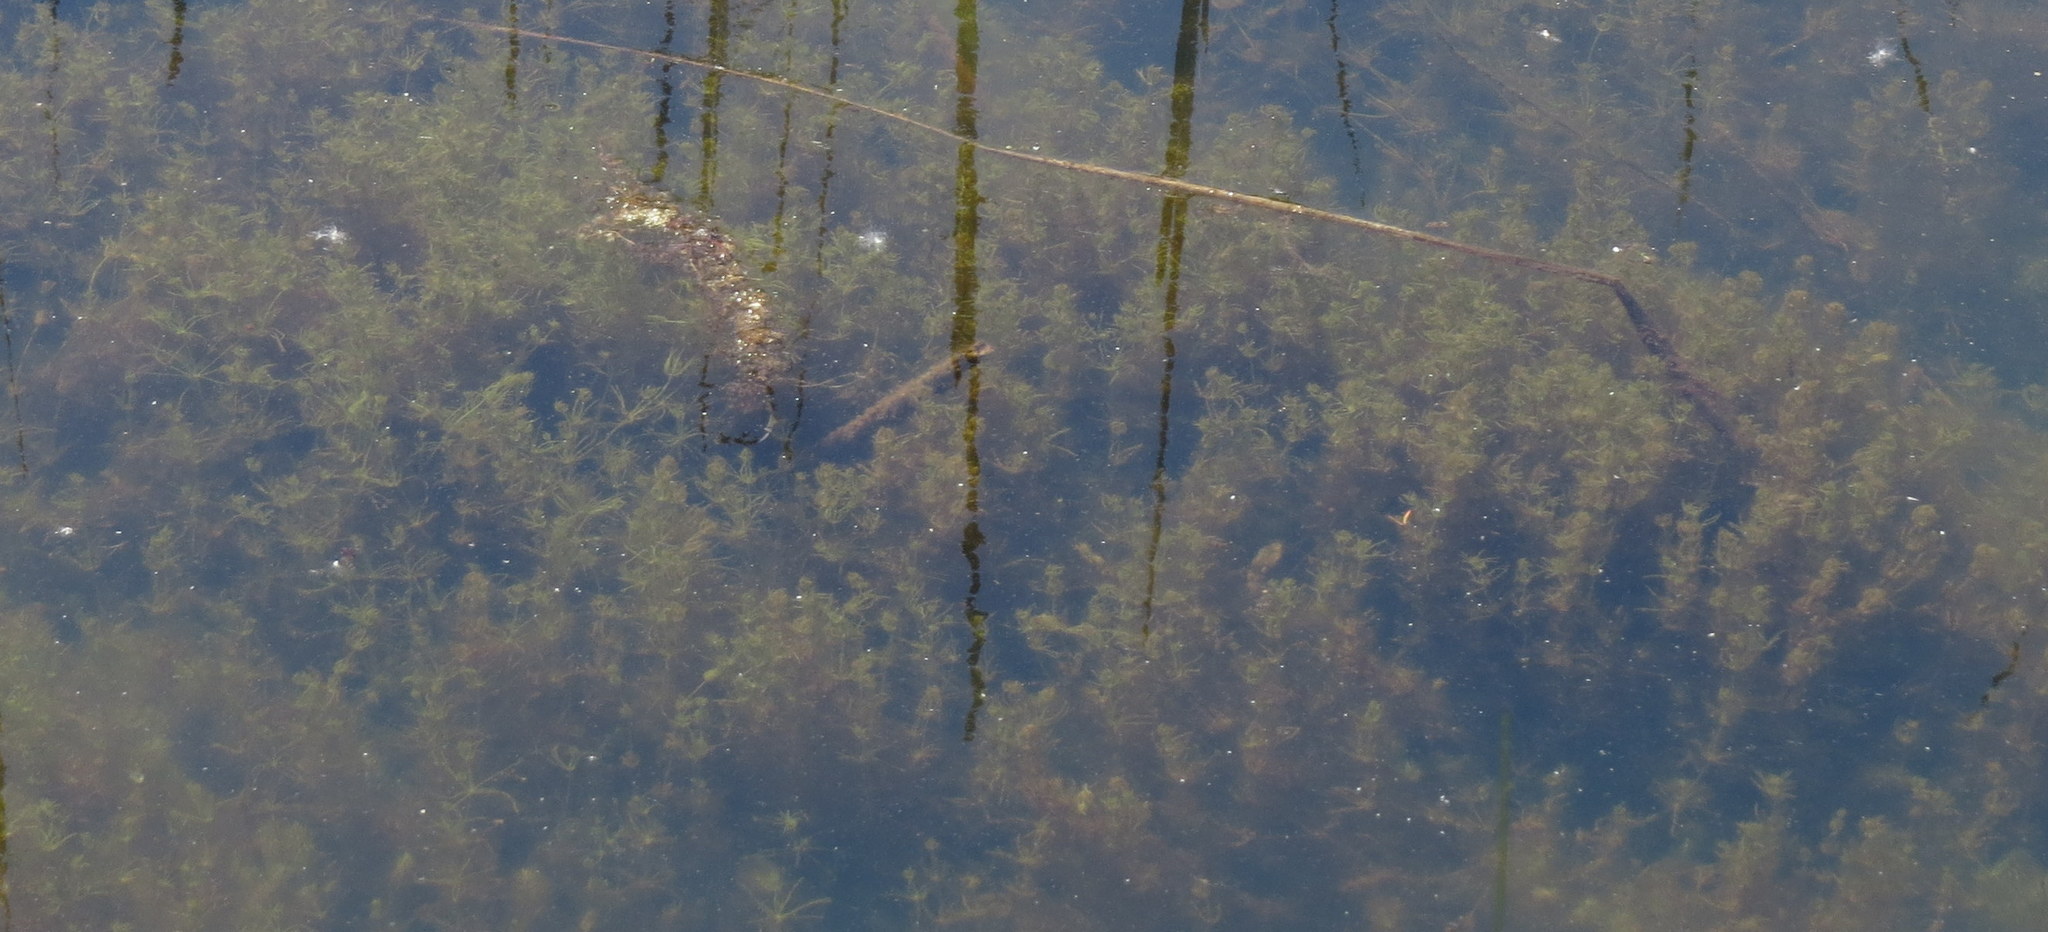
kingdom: Plantae
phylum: Tracheophyta
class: Magnoliopsida
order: Saxifragales
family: Haloragaceae
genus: Myriophyllum
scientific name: Myriophyllum spicatum
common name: Spiked water-milfoil
